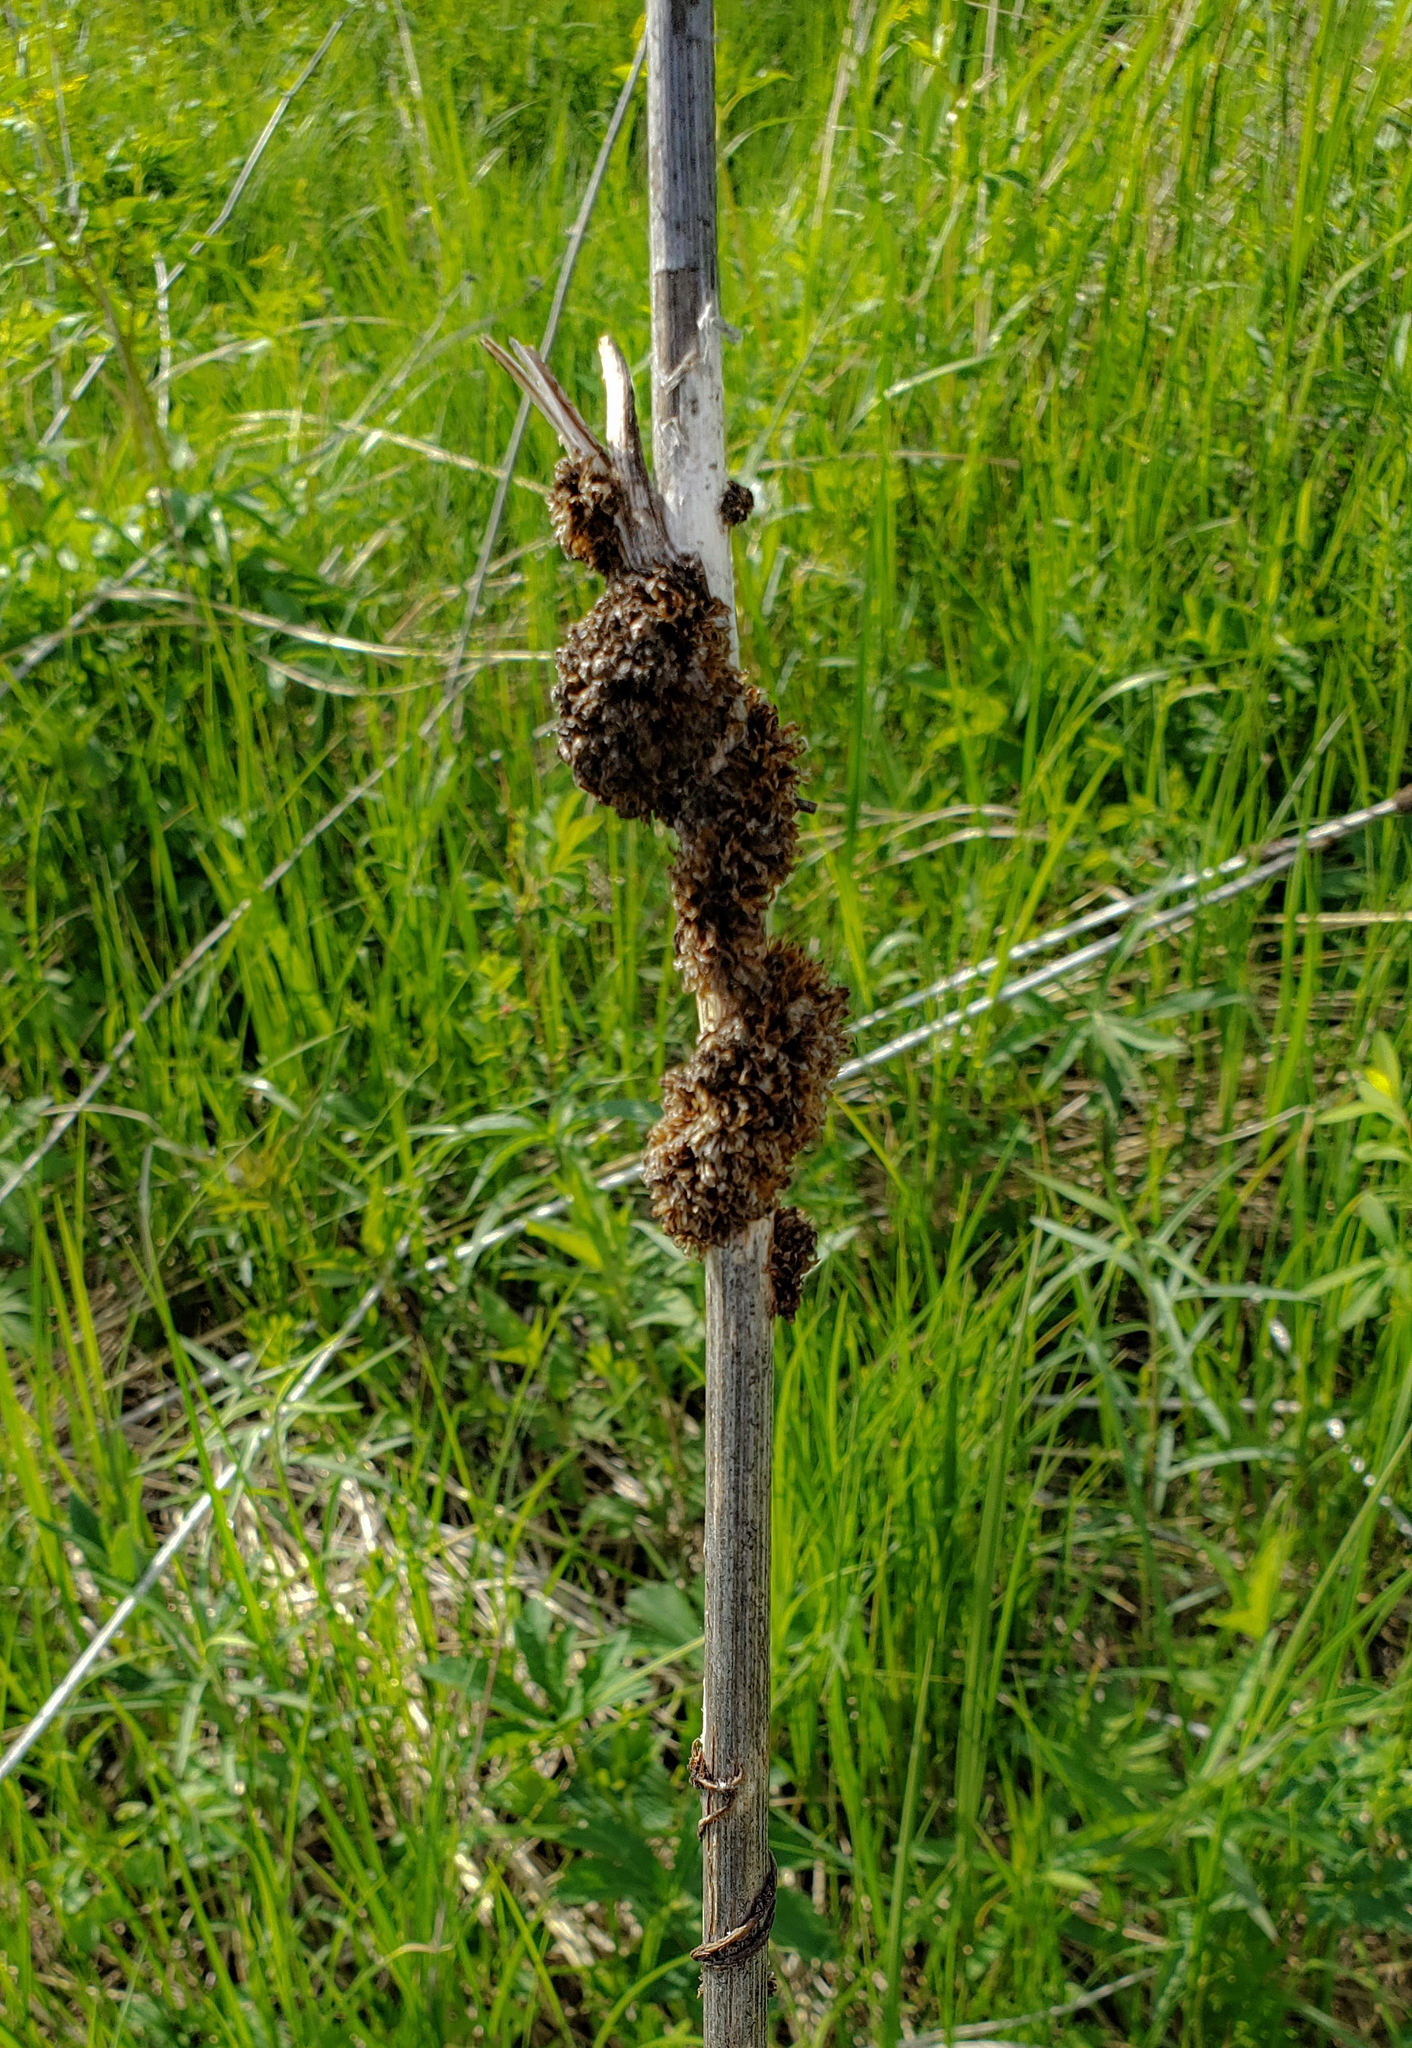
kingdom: Plantae
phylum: Tracheophyta
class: Magnoliopsida
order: Solanales
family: Convolvulaceae
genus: Cuscuta
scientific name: Cuscuta glomerata
